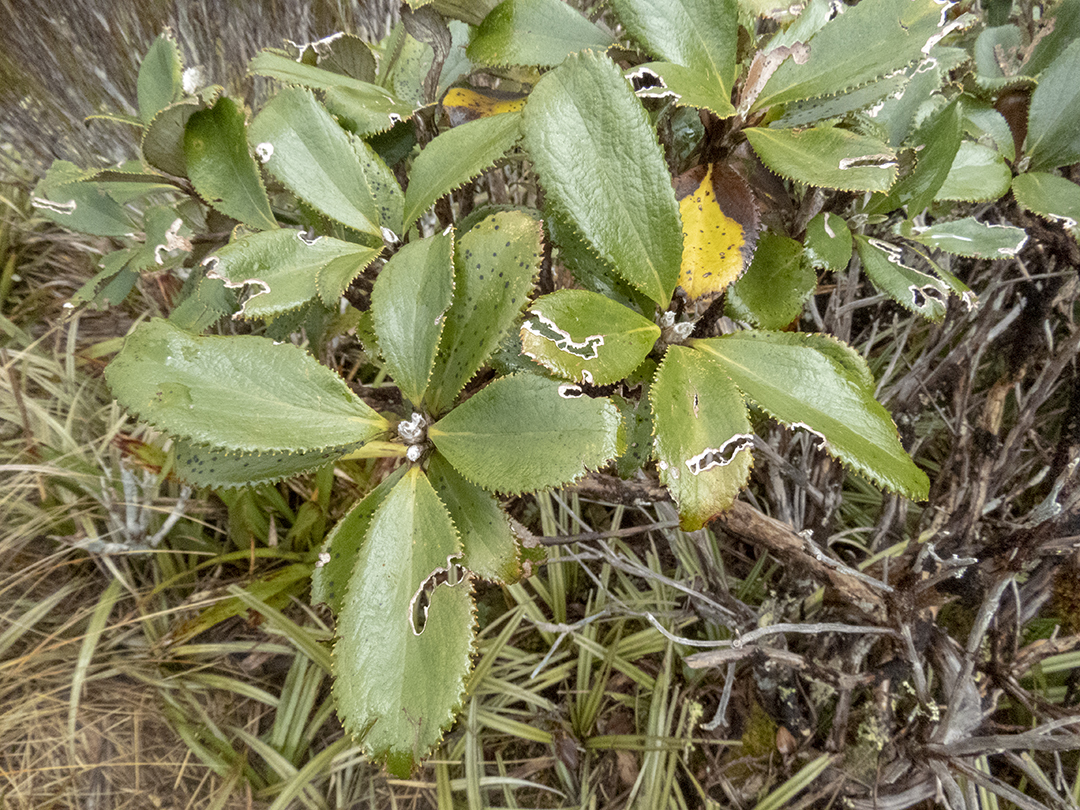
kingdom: Plantae
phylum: Tracheophyta
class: Magnoliopsida
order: Asterales
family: Asteraceae
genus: Macrolearia
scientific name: Macrolearia colensoi
